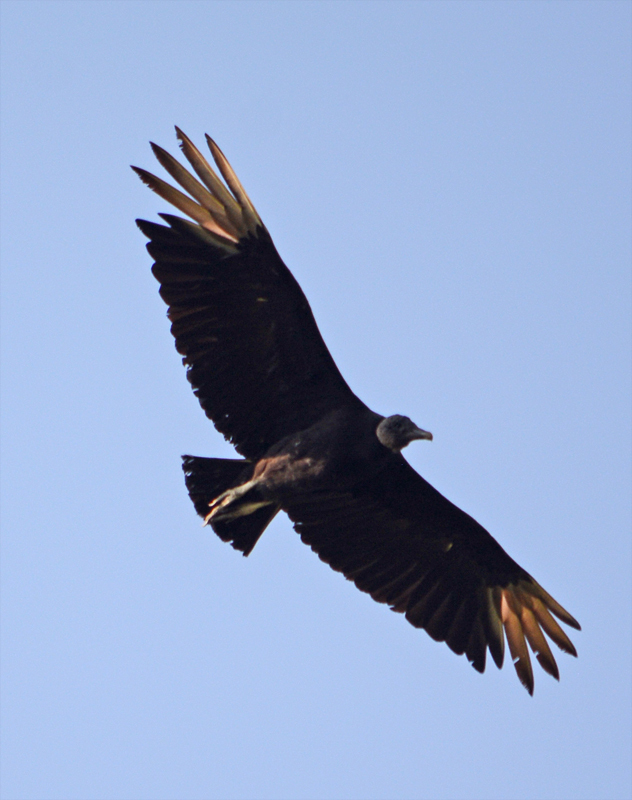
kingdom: Animalia
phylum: Chordata
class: Aves
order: Accipitriformes
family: Cathartidae
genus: Coragyps
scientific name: Coragyps atratus
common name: Black vulture
